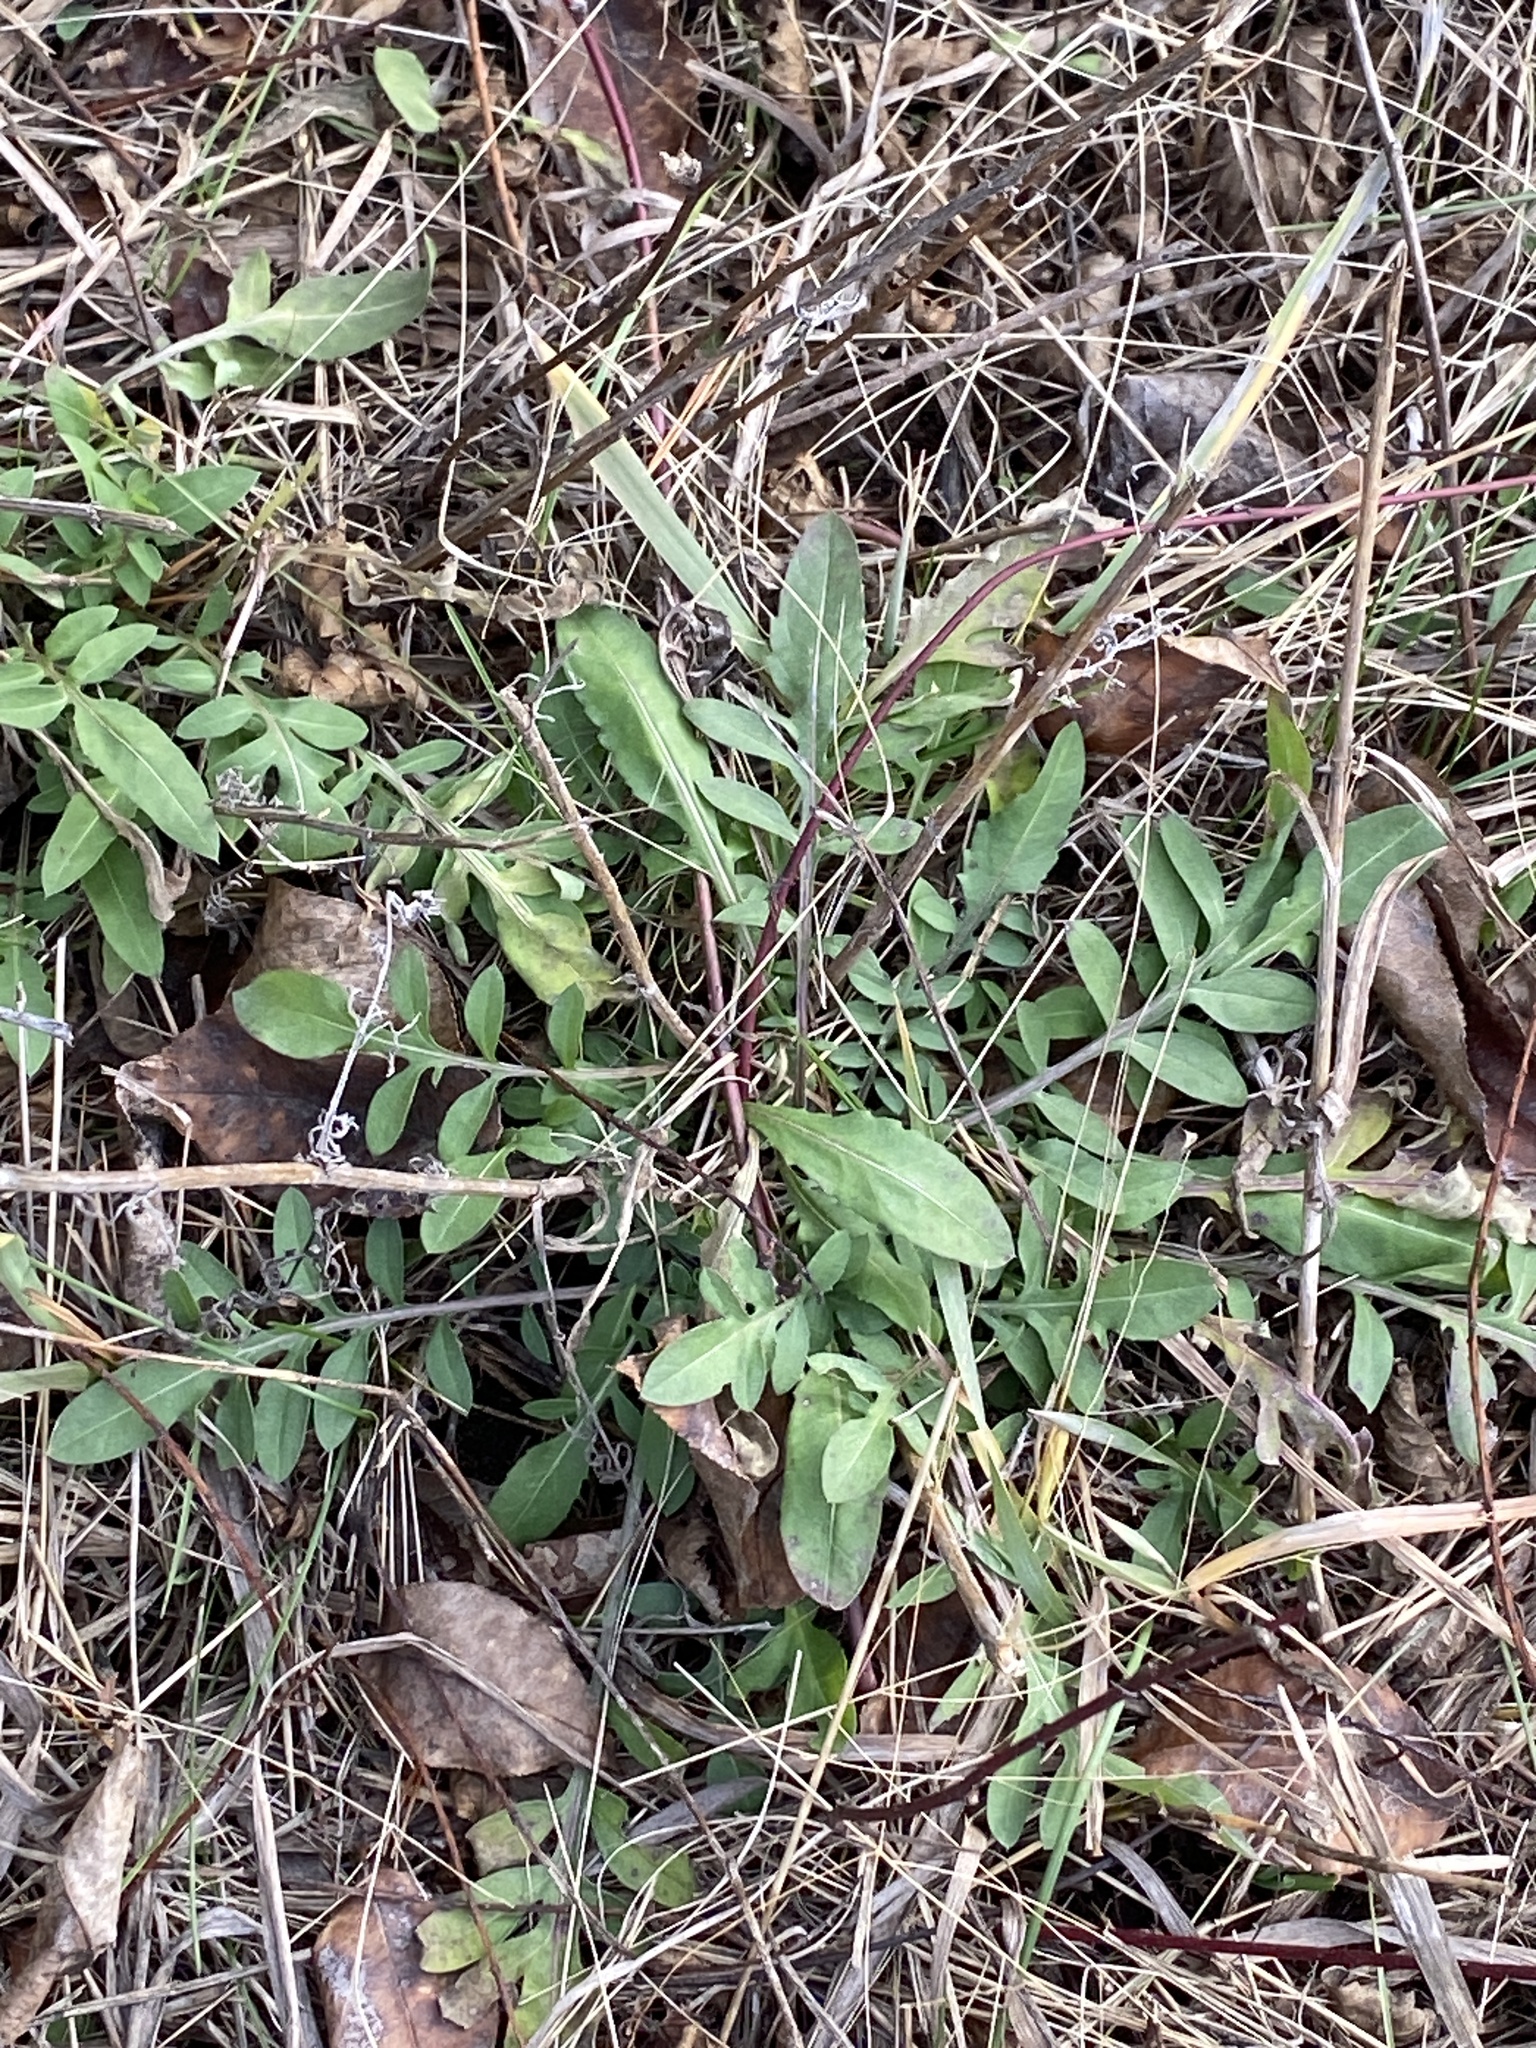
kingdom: Plantae
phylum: Tracheophyta
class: Magnoliopsida
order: Asterales
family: Asteraceae
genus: Centaurea
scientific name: Centaurea stoebe
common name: Spotted knapweed
